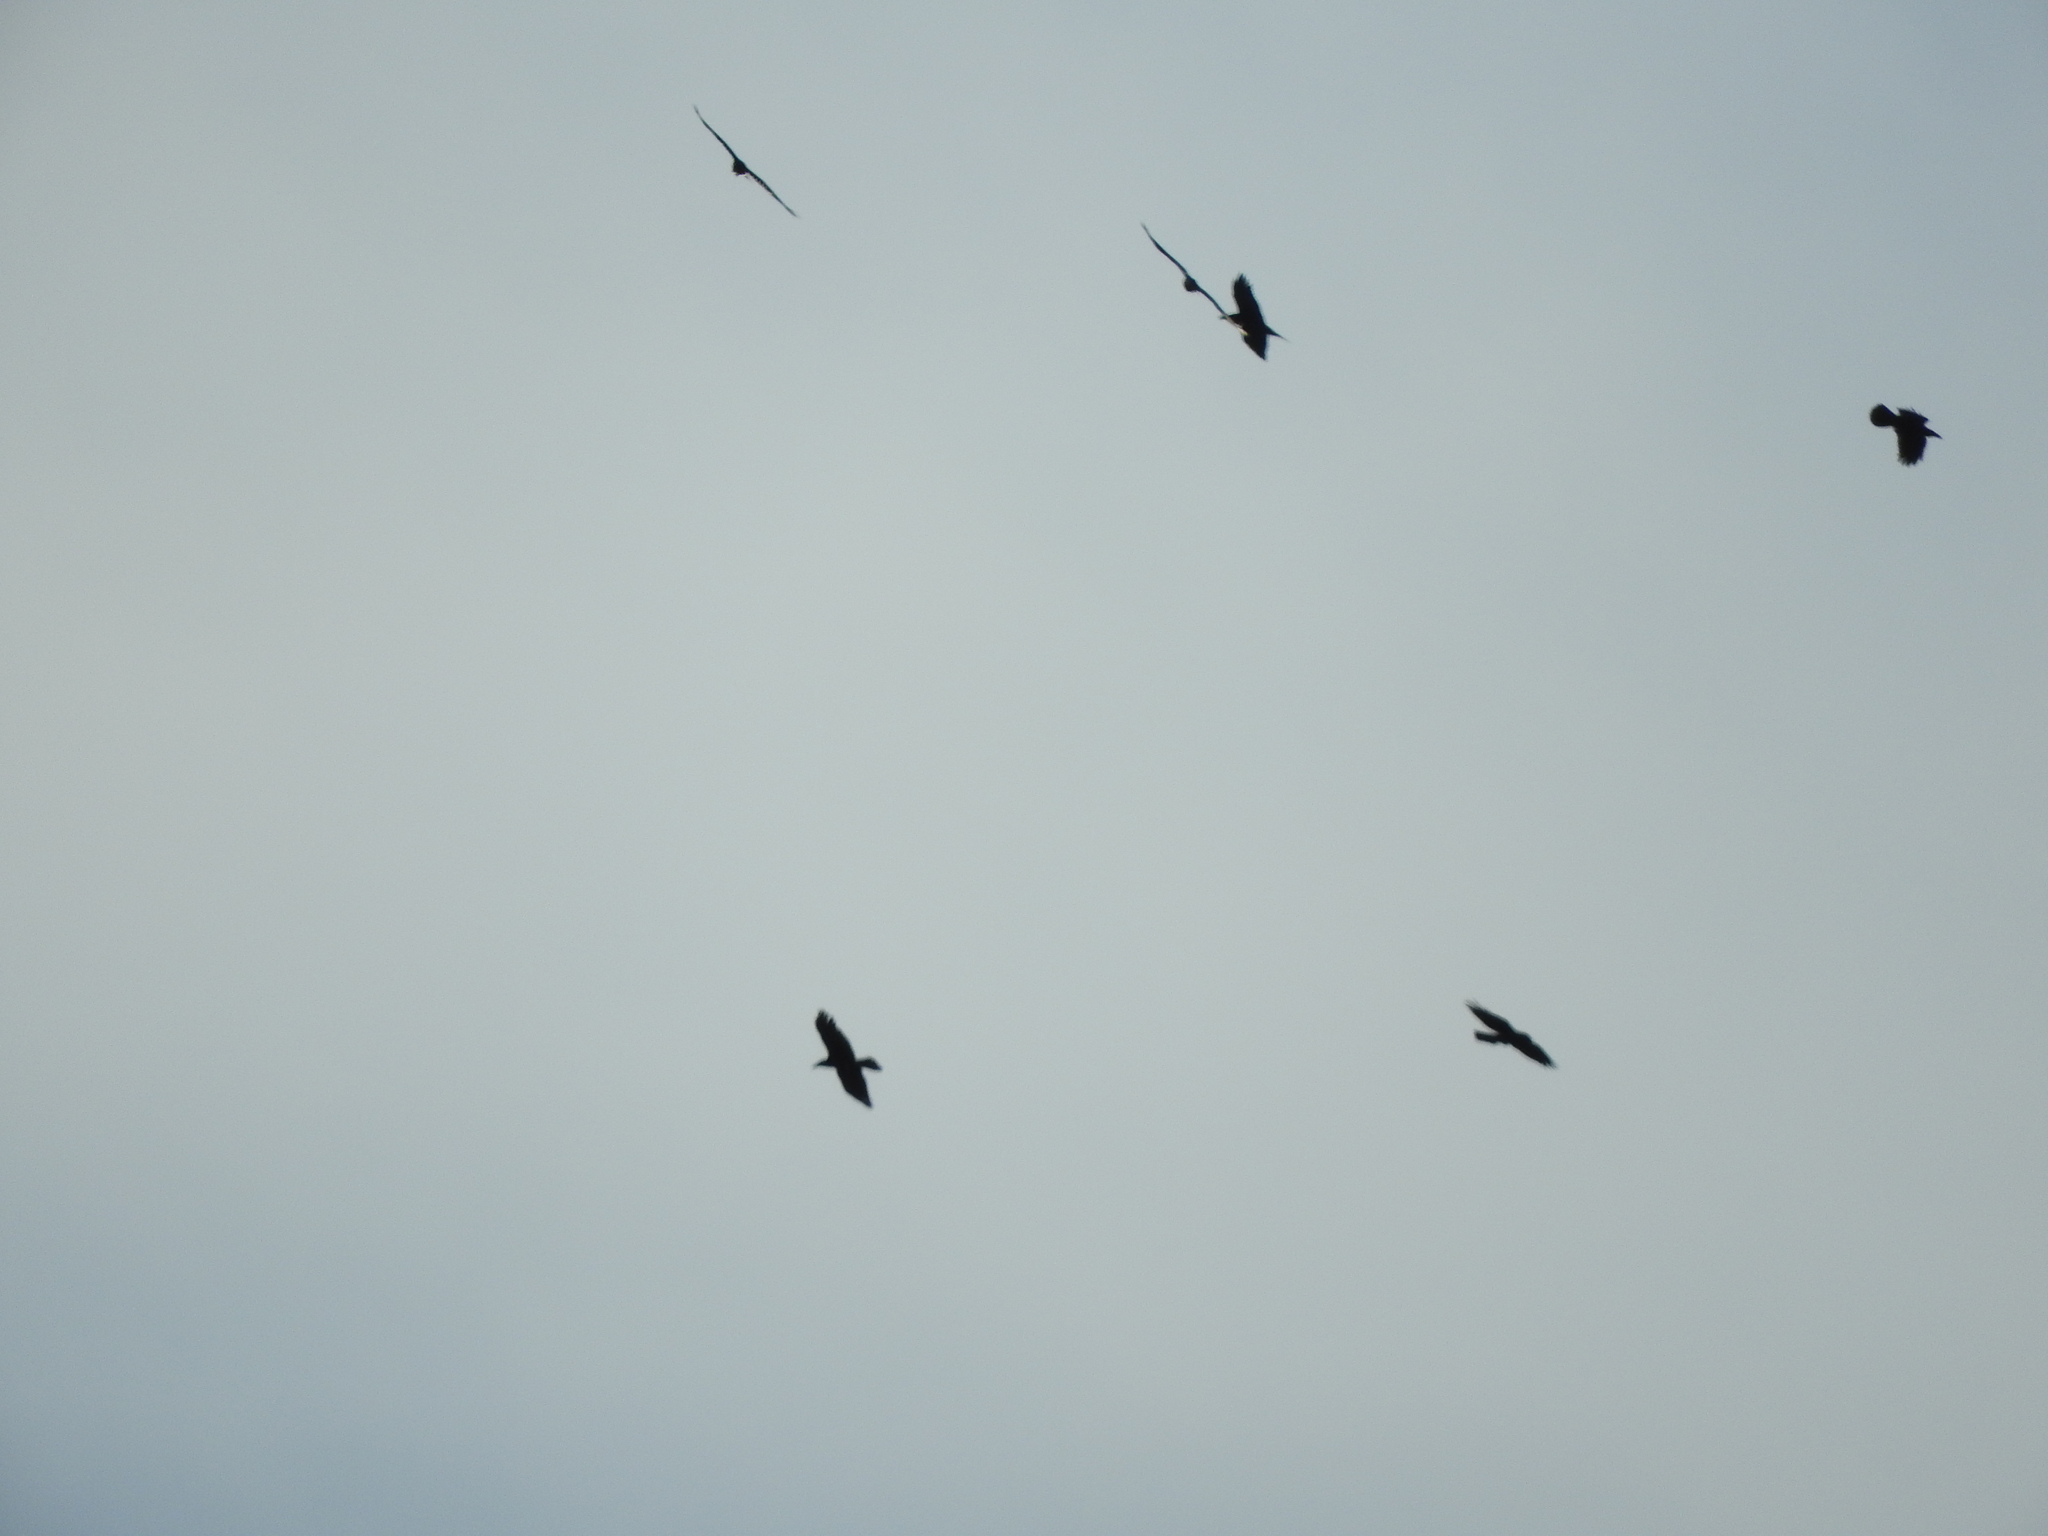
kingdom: Animalia
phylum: Chordata
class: Aves
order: Passeriformes
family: Corvidae
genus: Corvus
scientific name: Corvus corax
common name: Common raven
